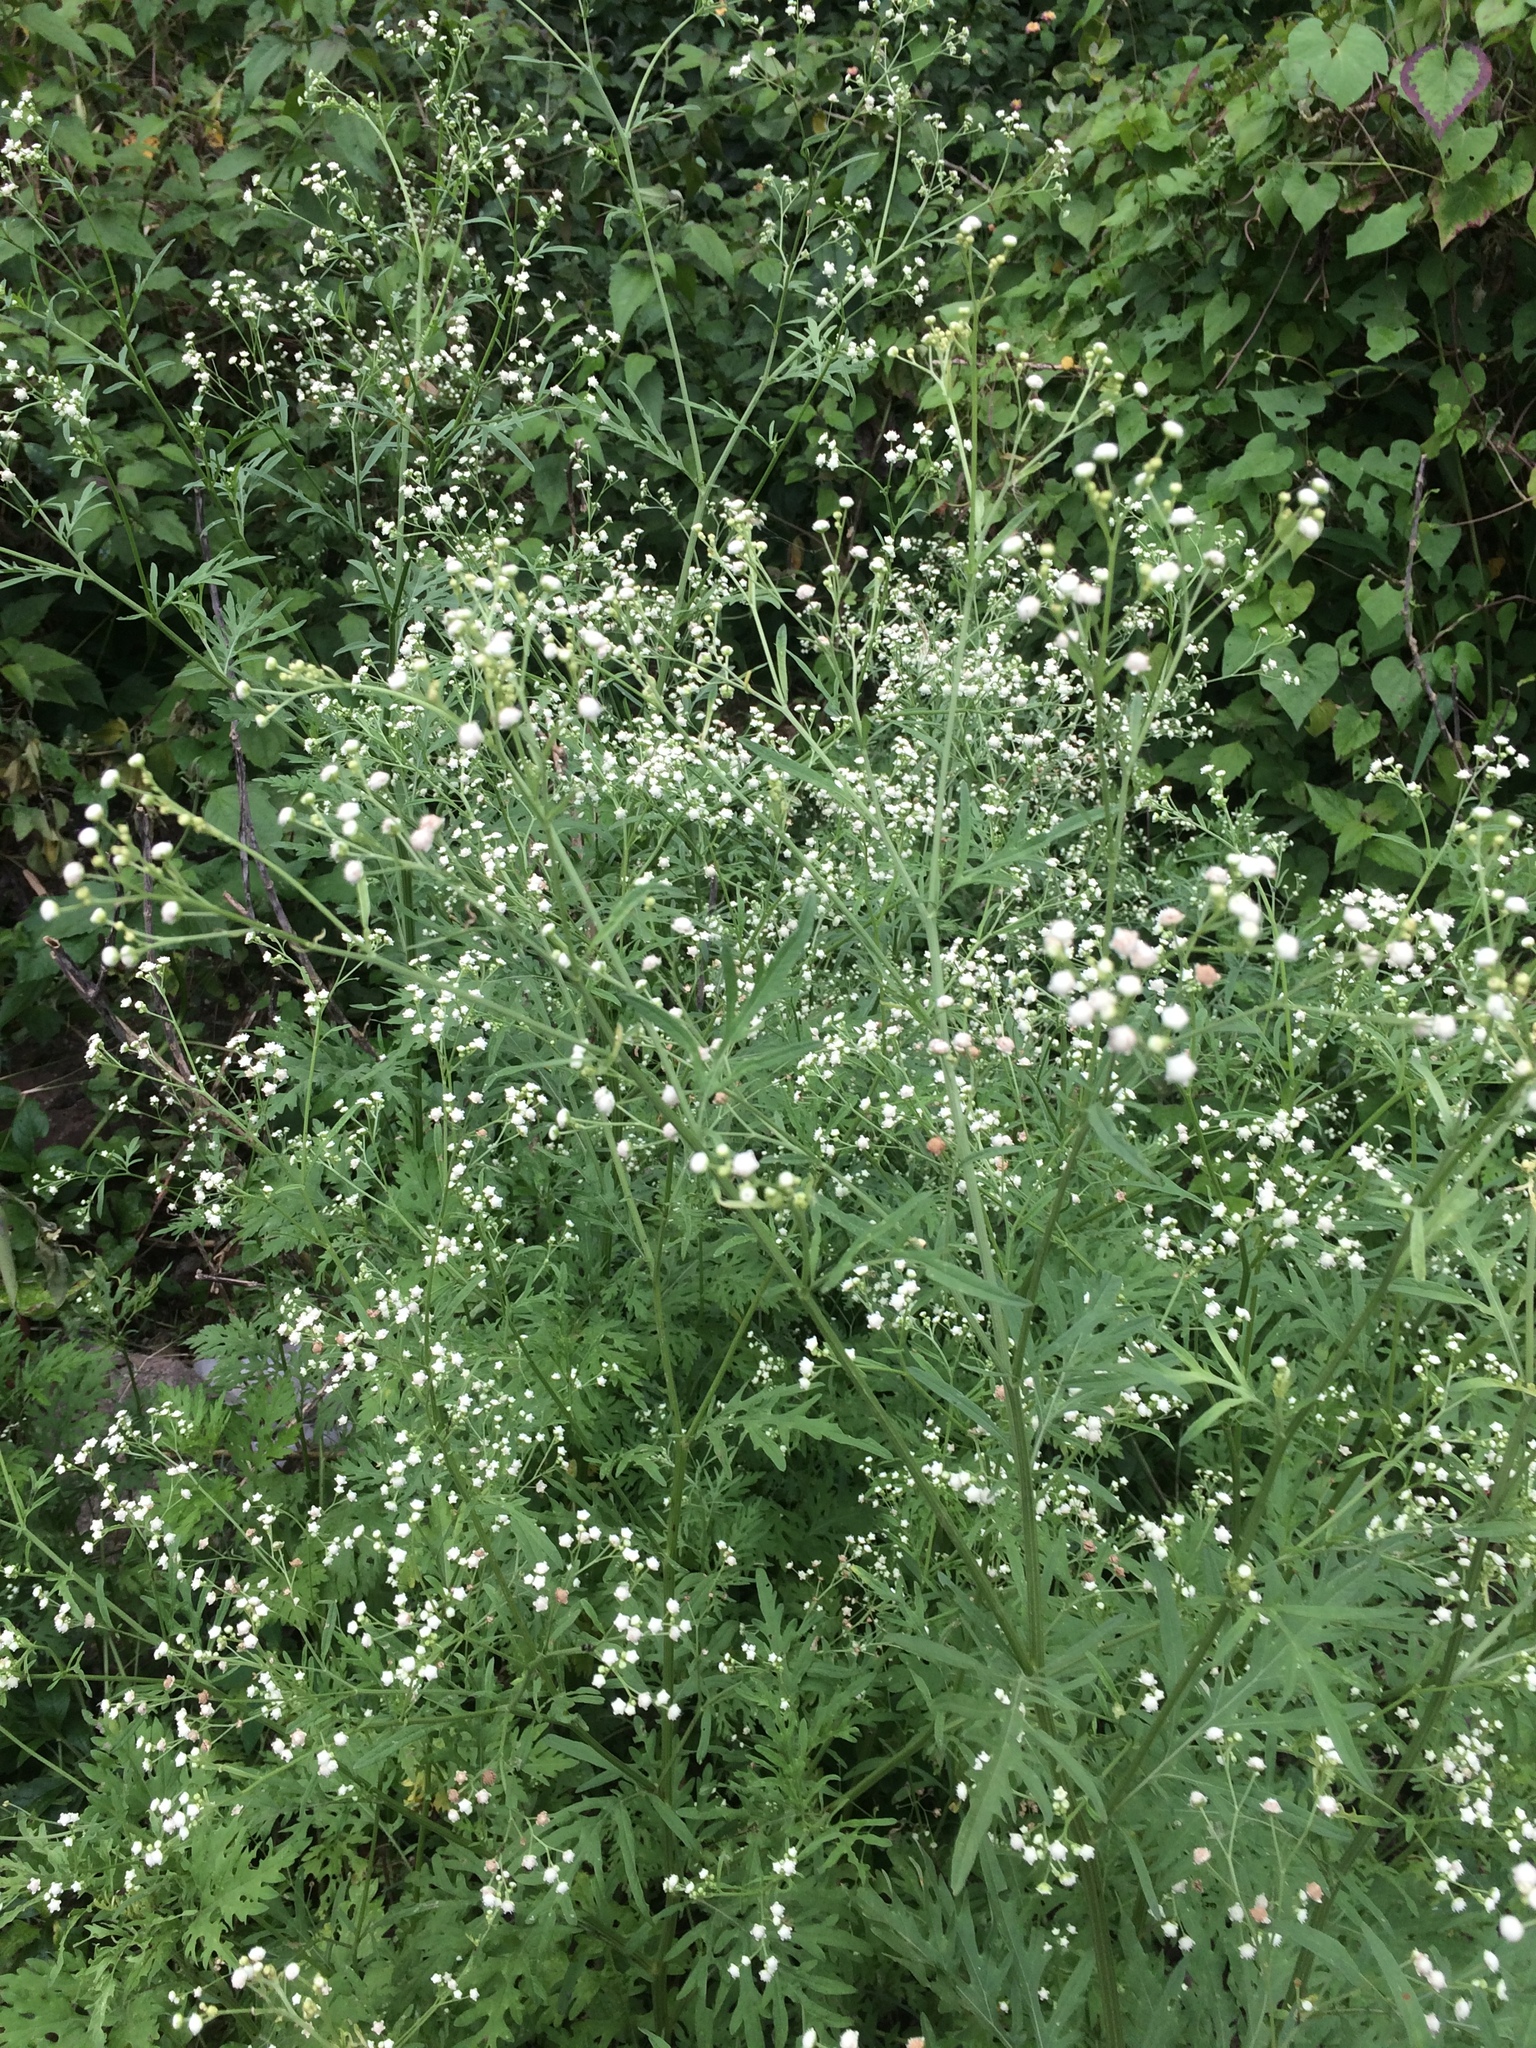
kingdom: Plantae
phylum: Tracheophyta
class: Magnoliopsida
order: Asterales
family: Asteraceae
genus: Parthenium
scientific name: Parthenium hysterophorus
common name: Santa maria feverfew
